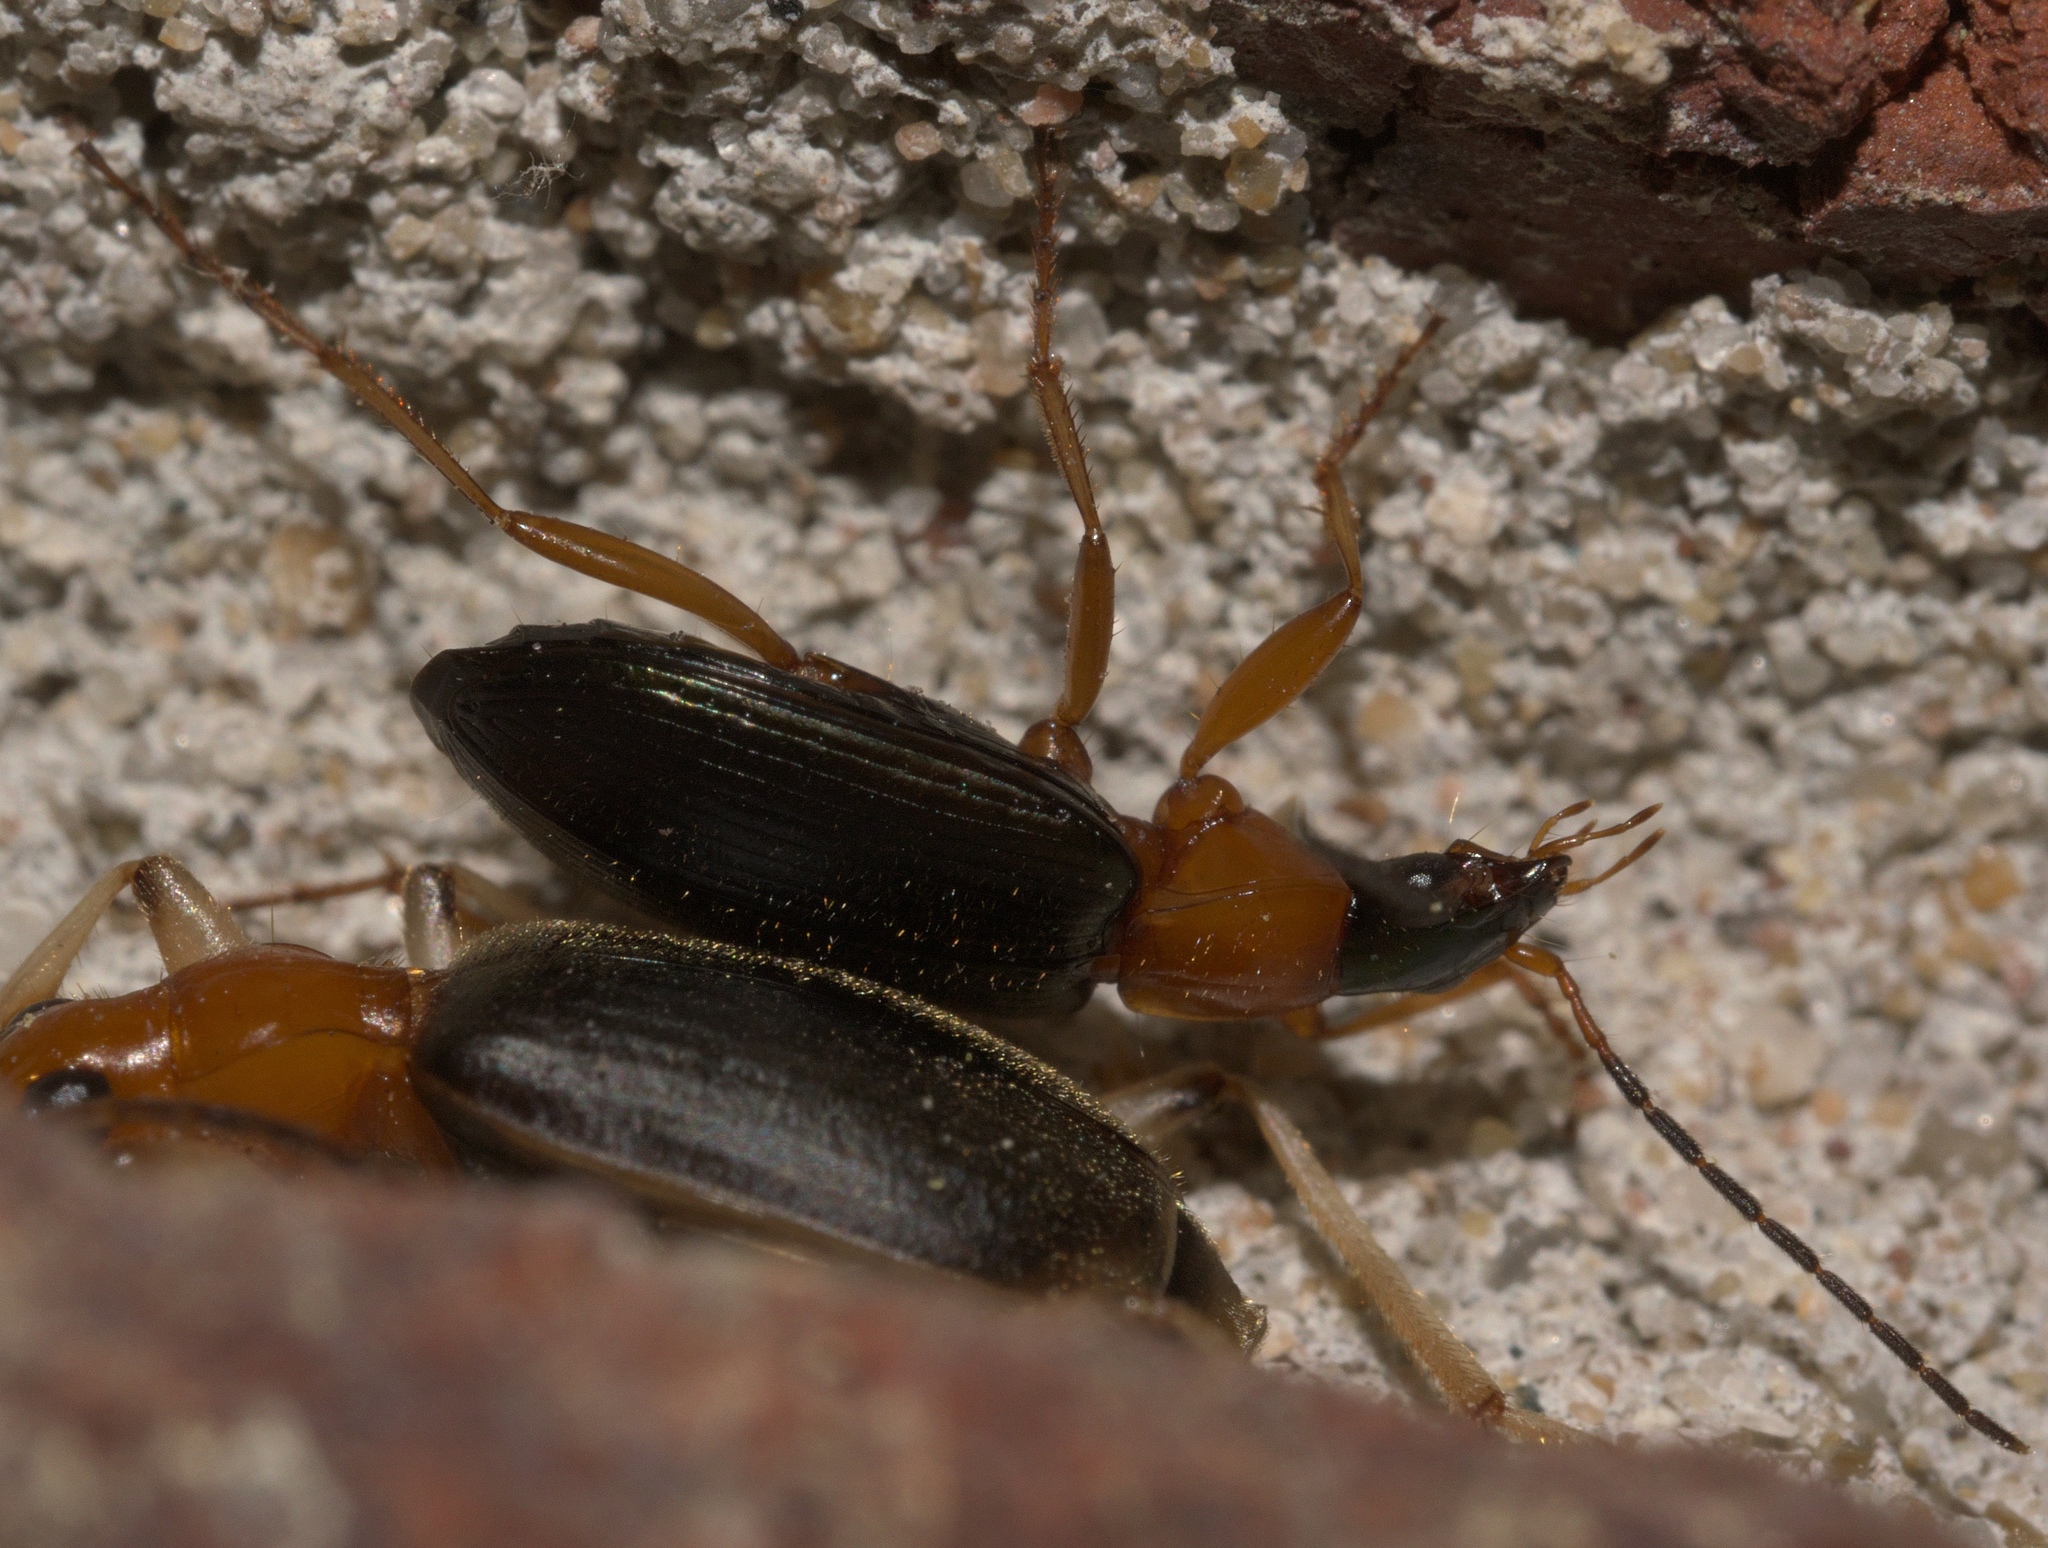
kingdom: Animalia
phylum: Arthropoda
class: Insecta
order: Coleoptera
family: Carabidae
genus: Agonum
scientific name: Agonum decorum
